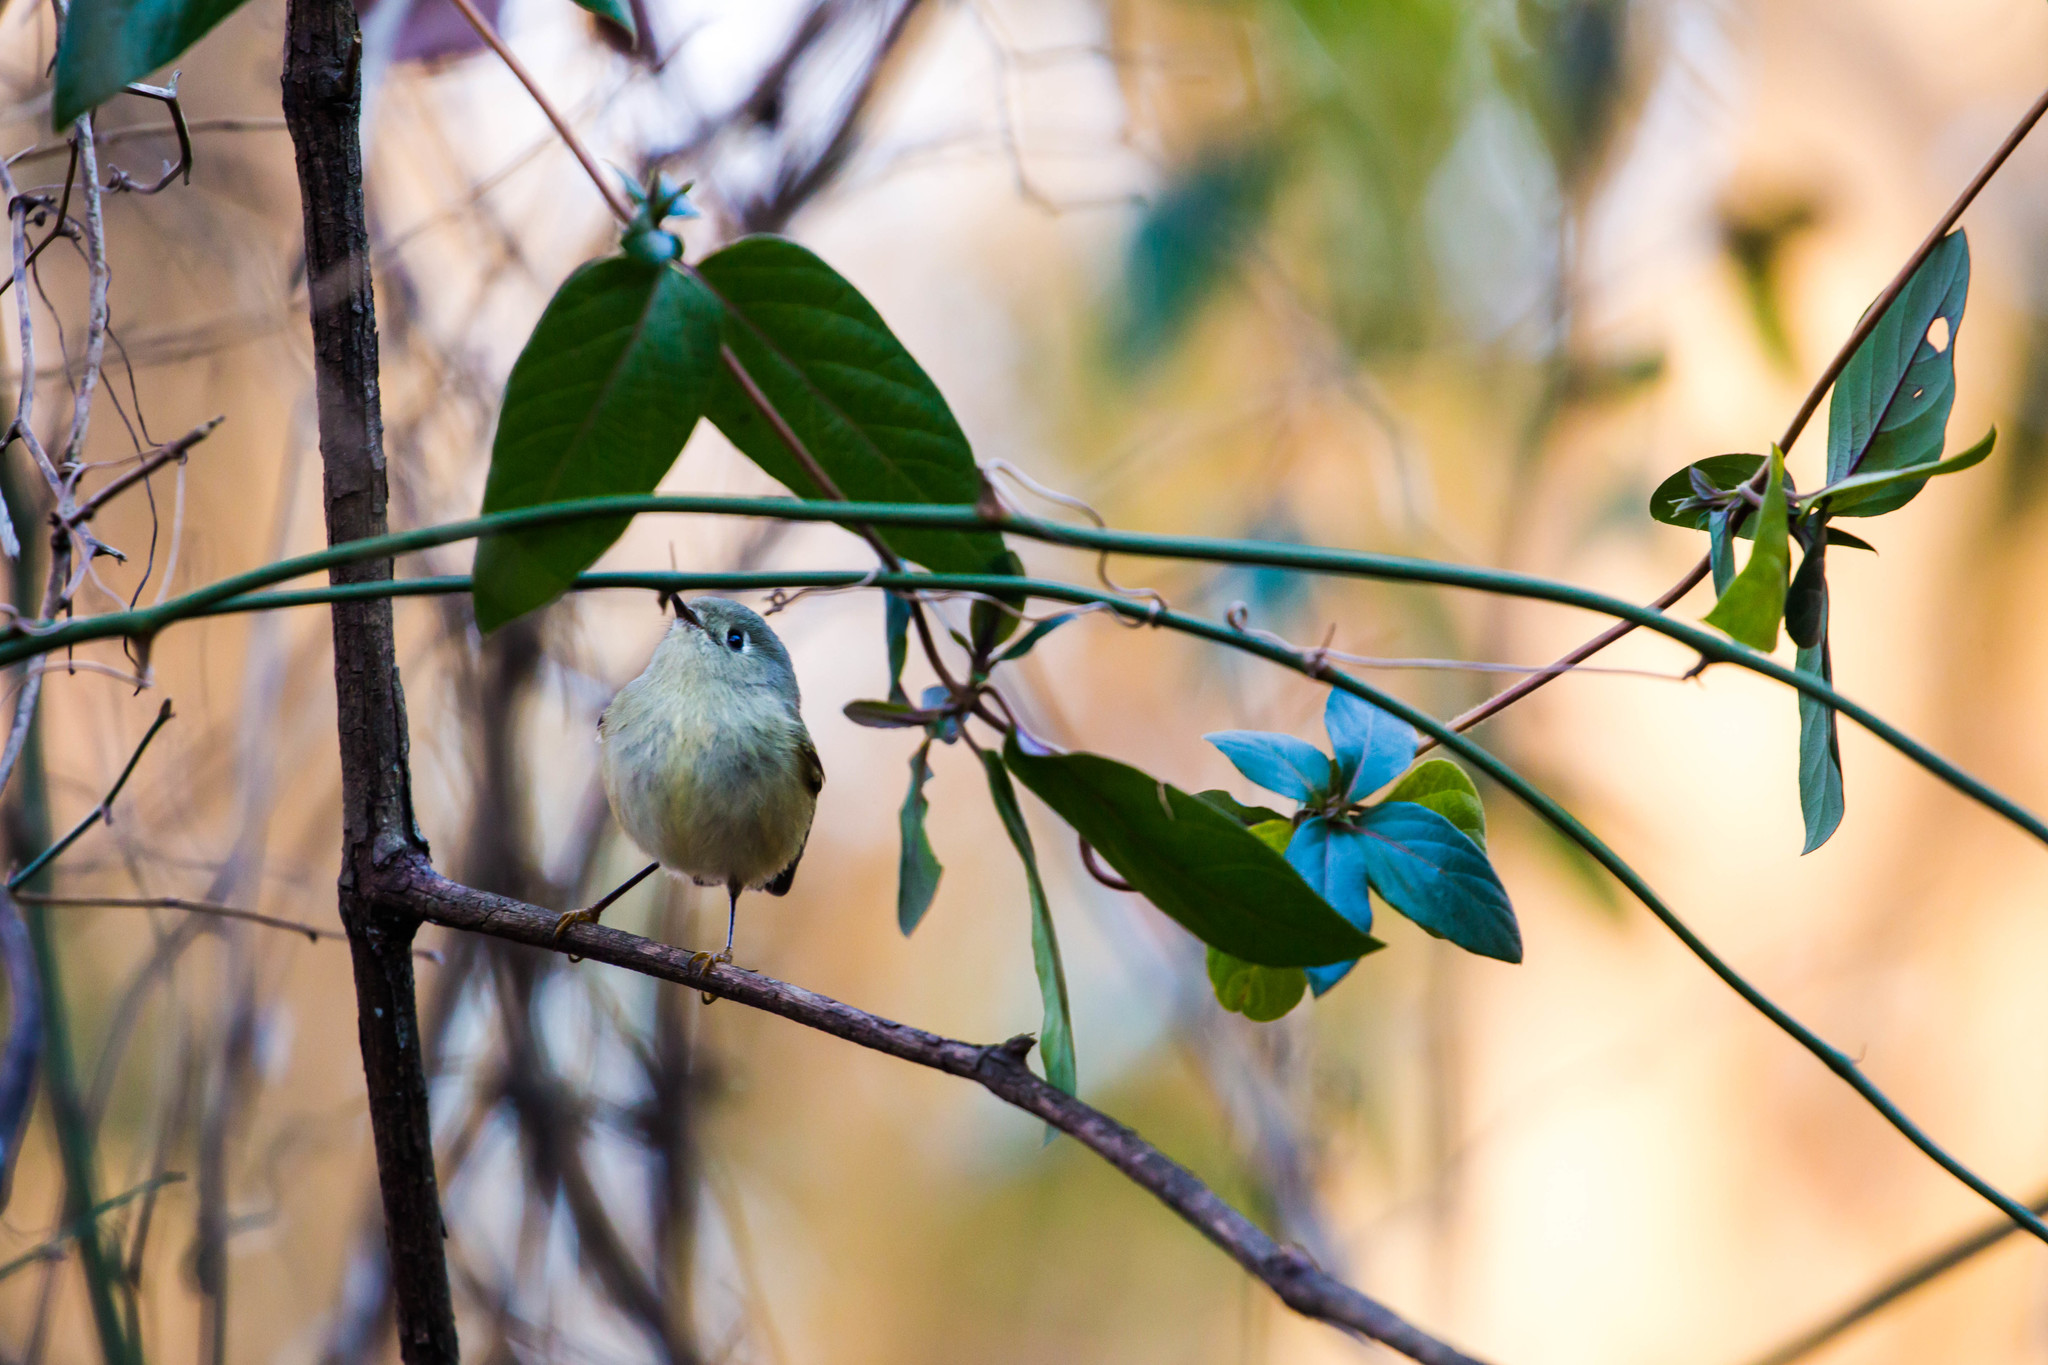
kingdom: Animalia
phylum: Chordata
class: Aves
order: Passeriformes
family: Regulidae
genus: Regulus
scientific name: Regulus calendula
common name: Ruby-crowned kinglet
